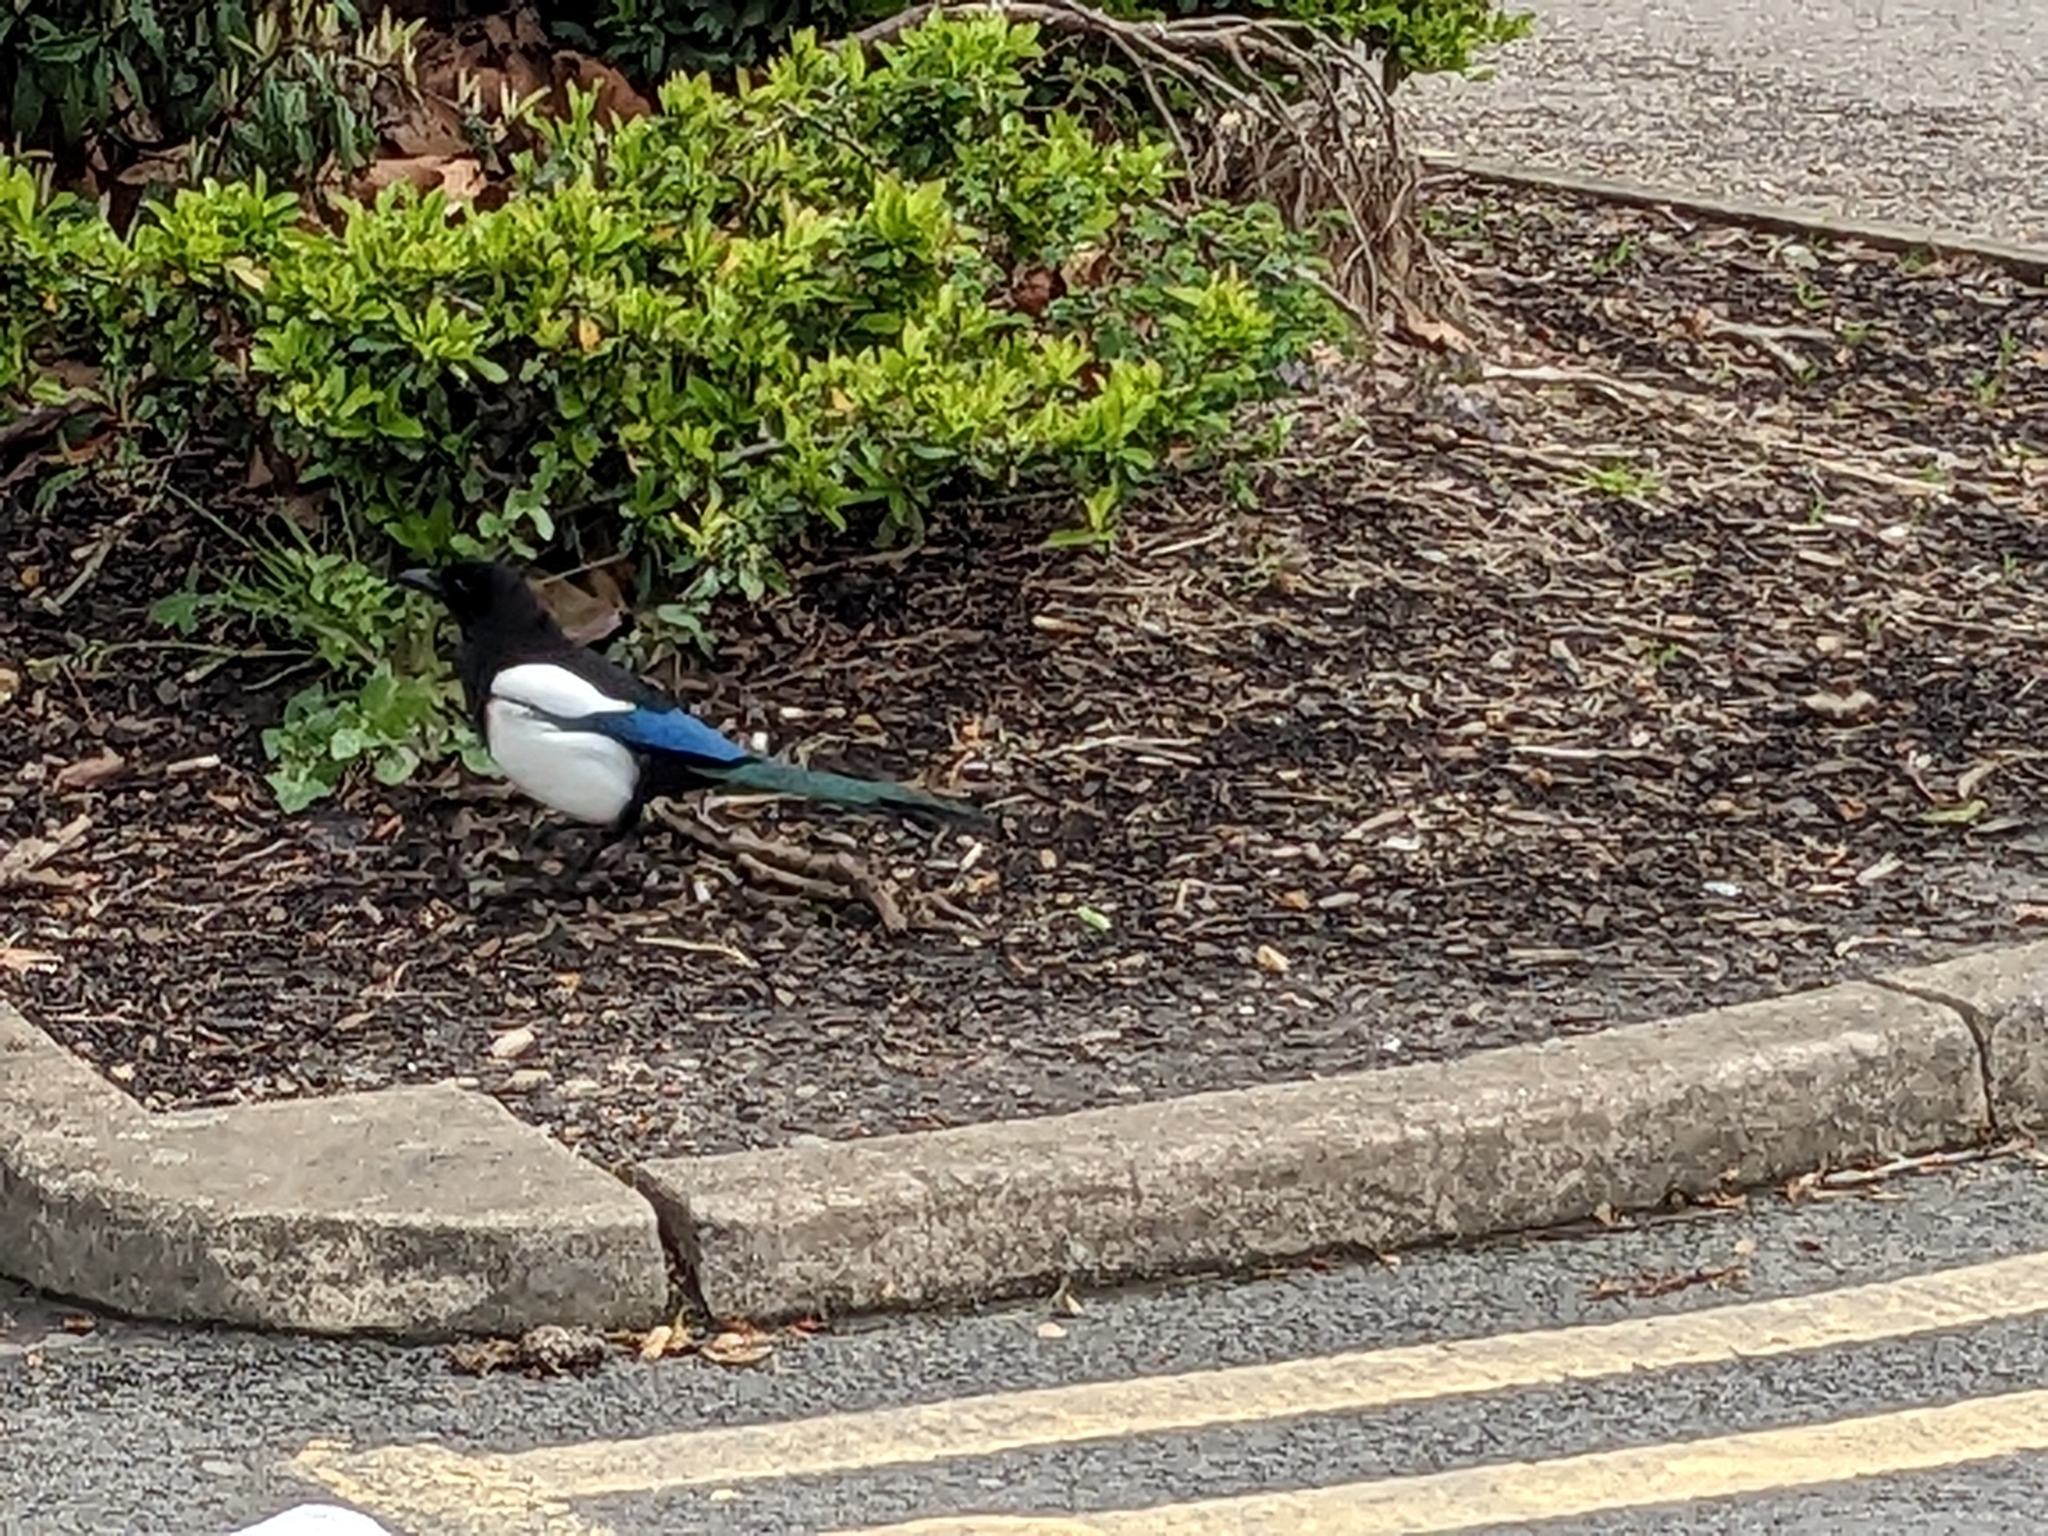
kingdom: Animalia
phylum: Chordata
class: Aves
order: Passeriformes
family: Corvidae
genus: Pica
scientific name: Pica pica
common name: Eurasian magpie
